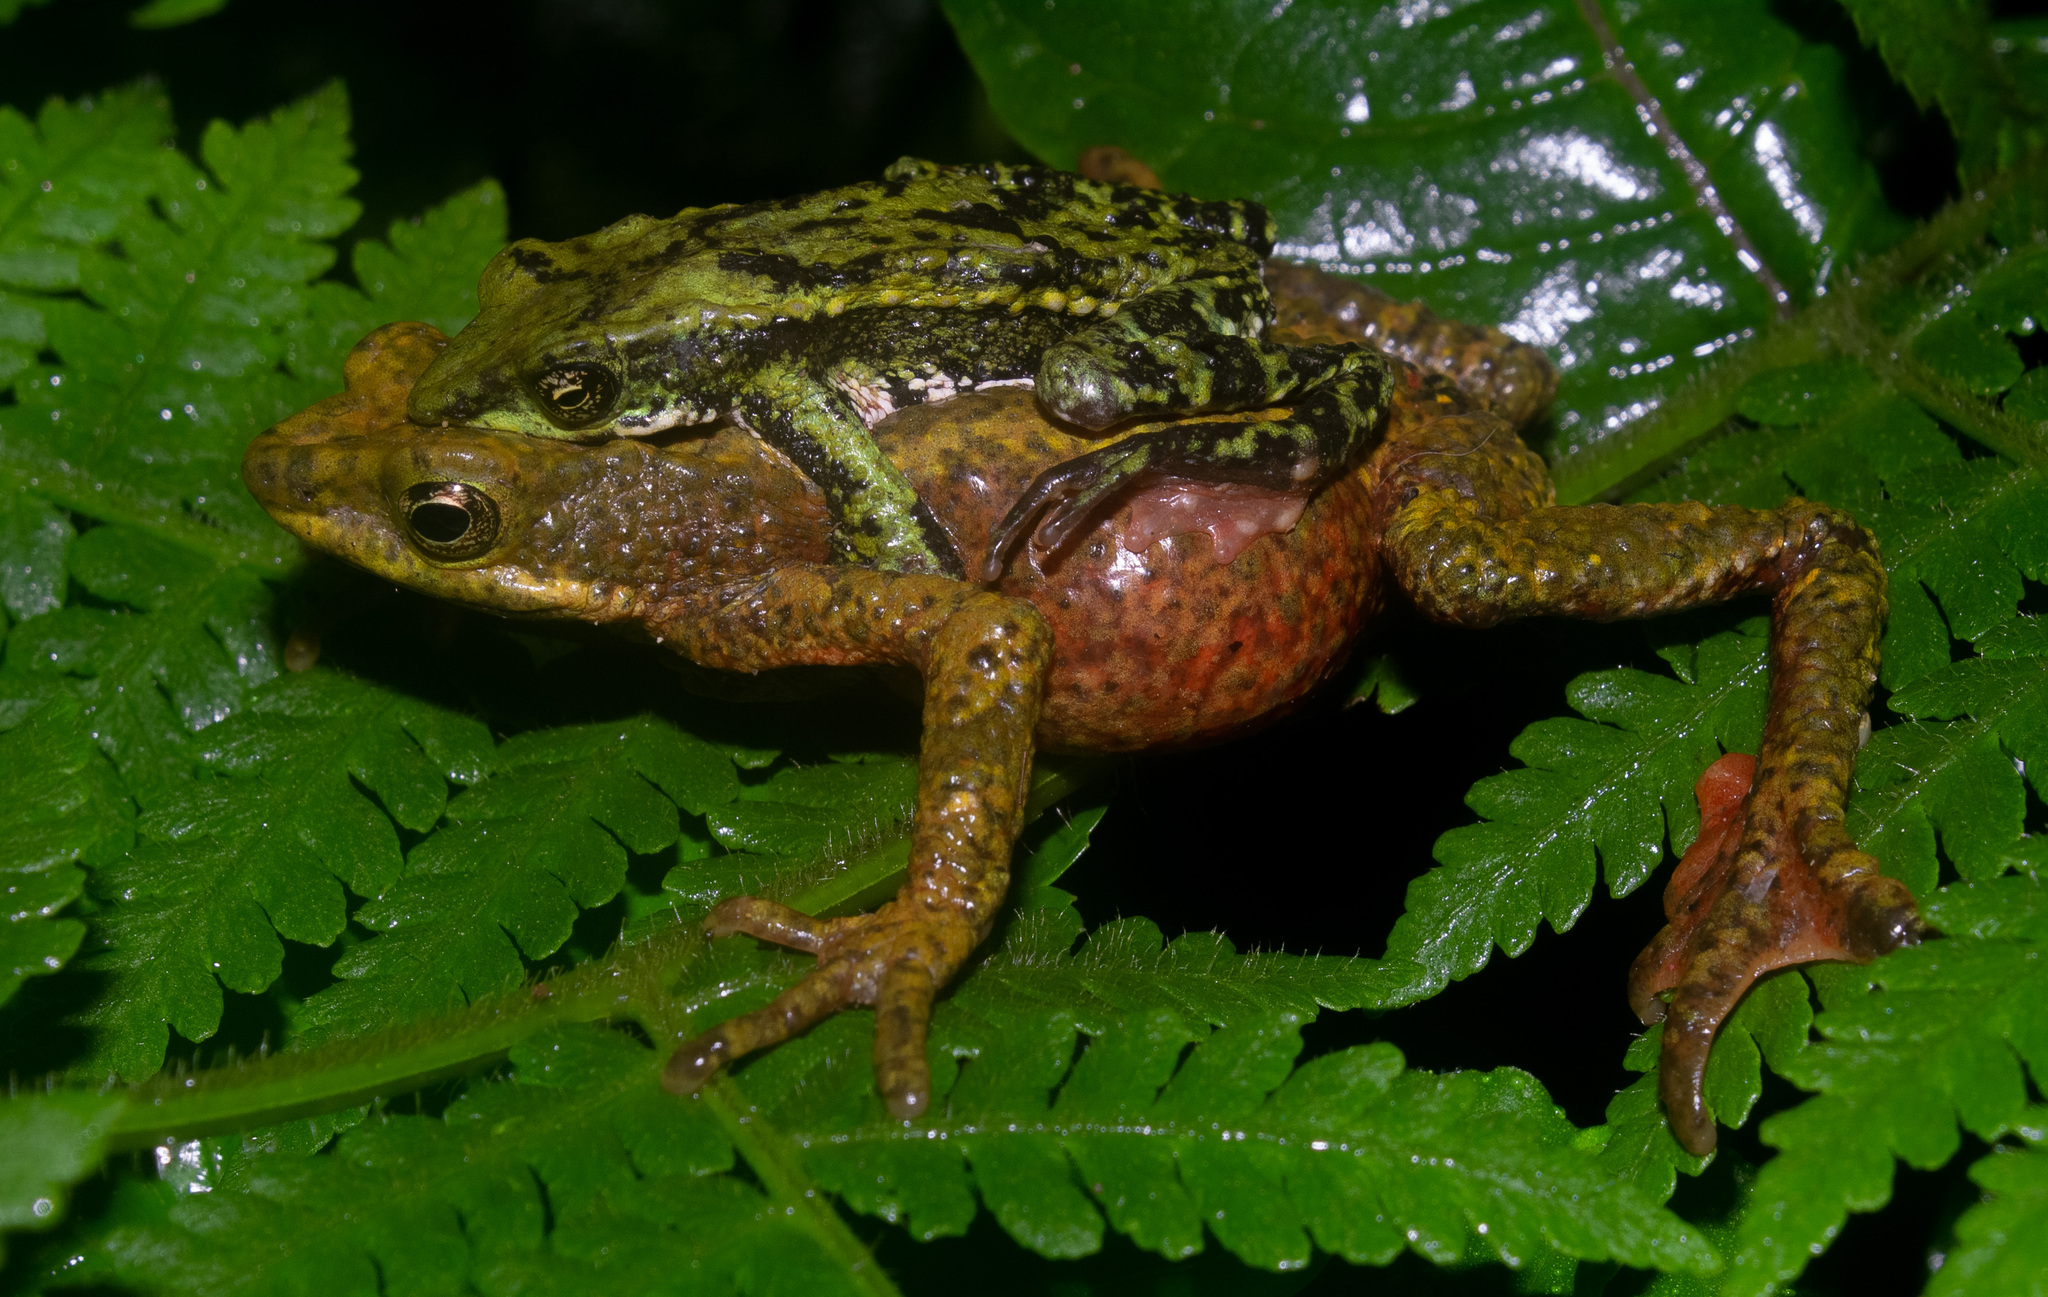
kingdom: Animalia
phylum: Chordata
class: Amphibia
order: Anura
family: Bufonidae
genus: Atelopus
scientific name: Atelopus laetissimus
